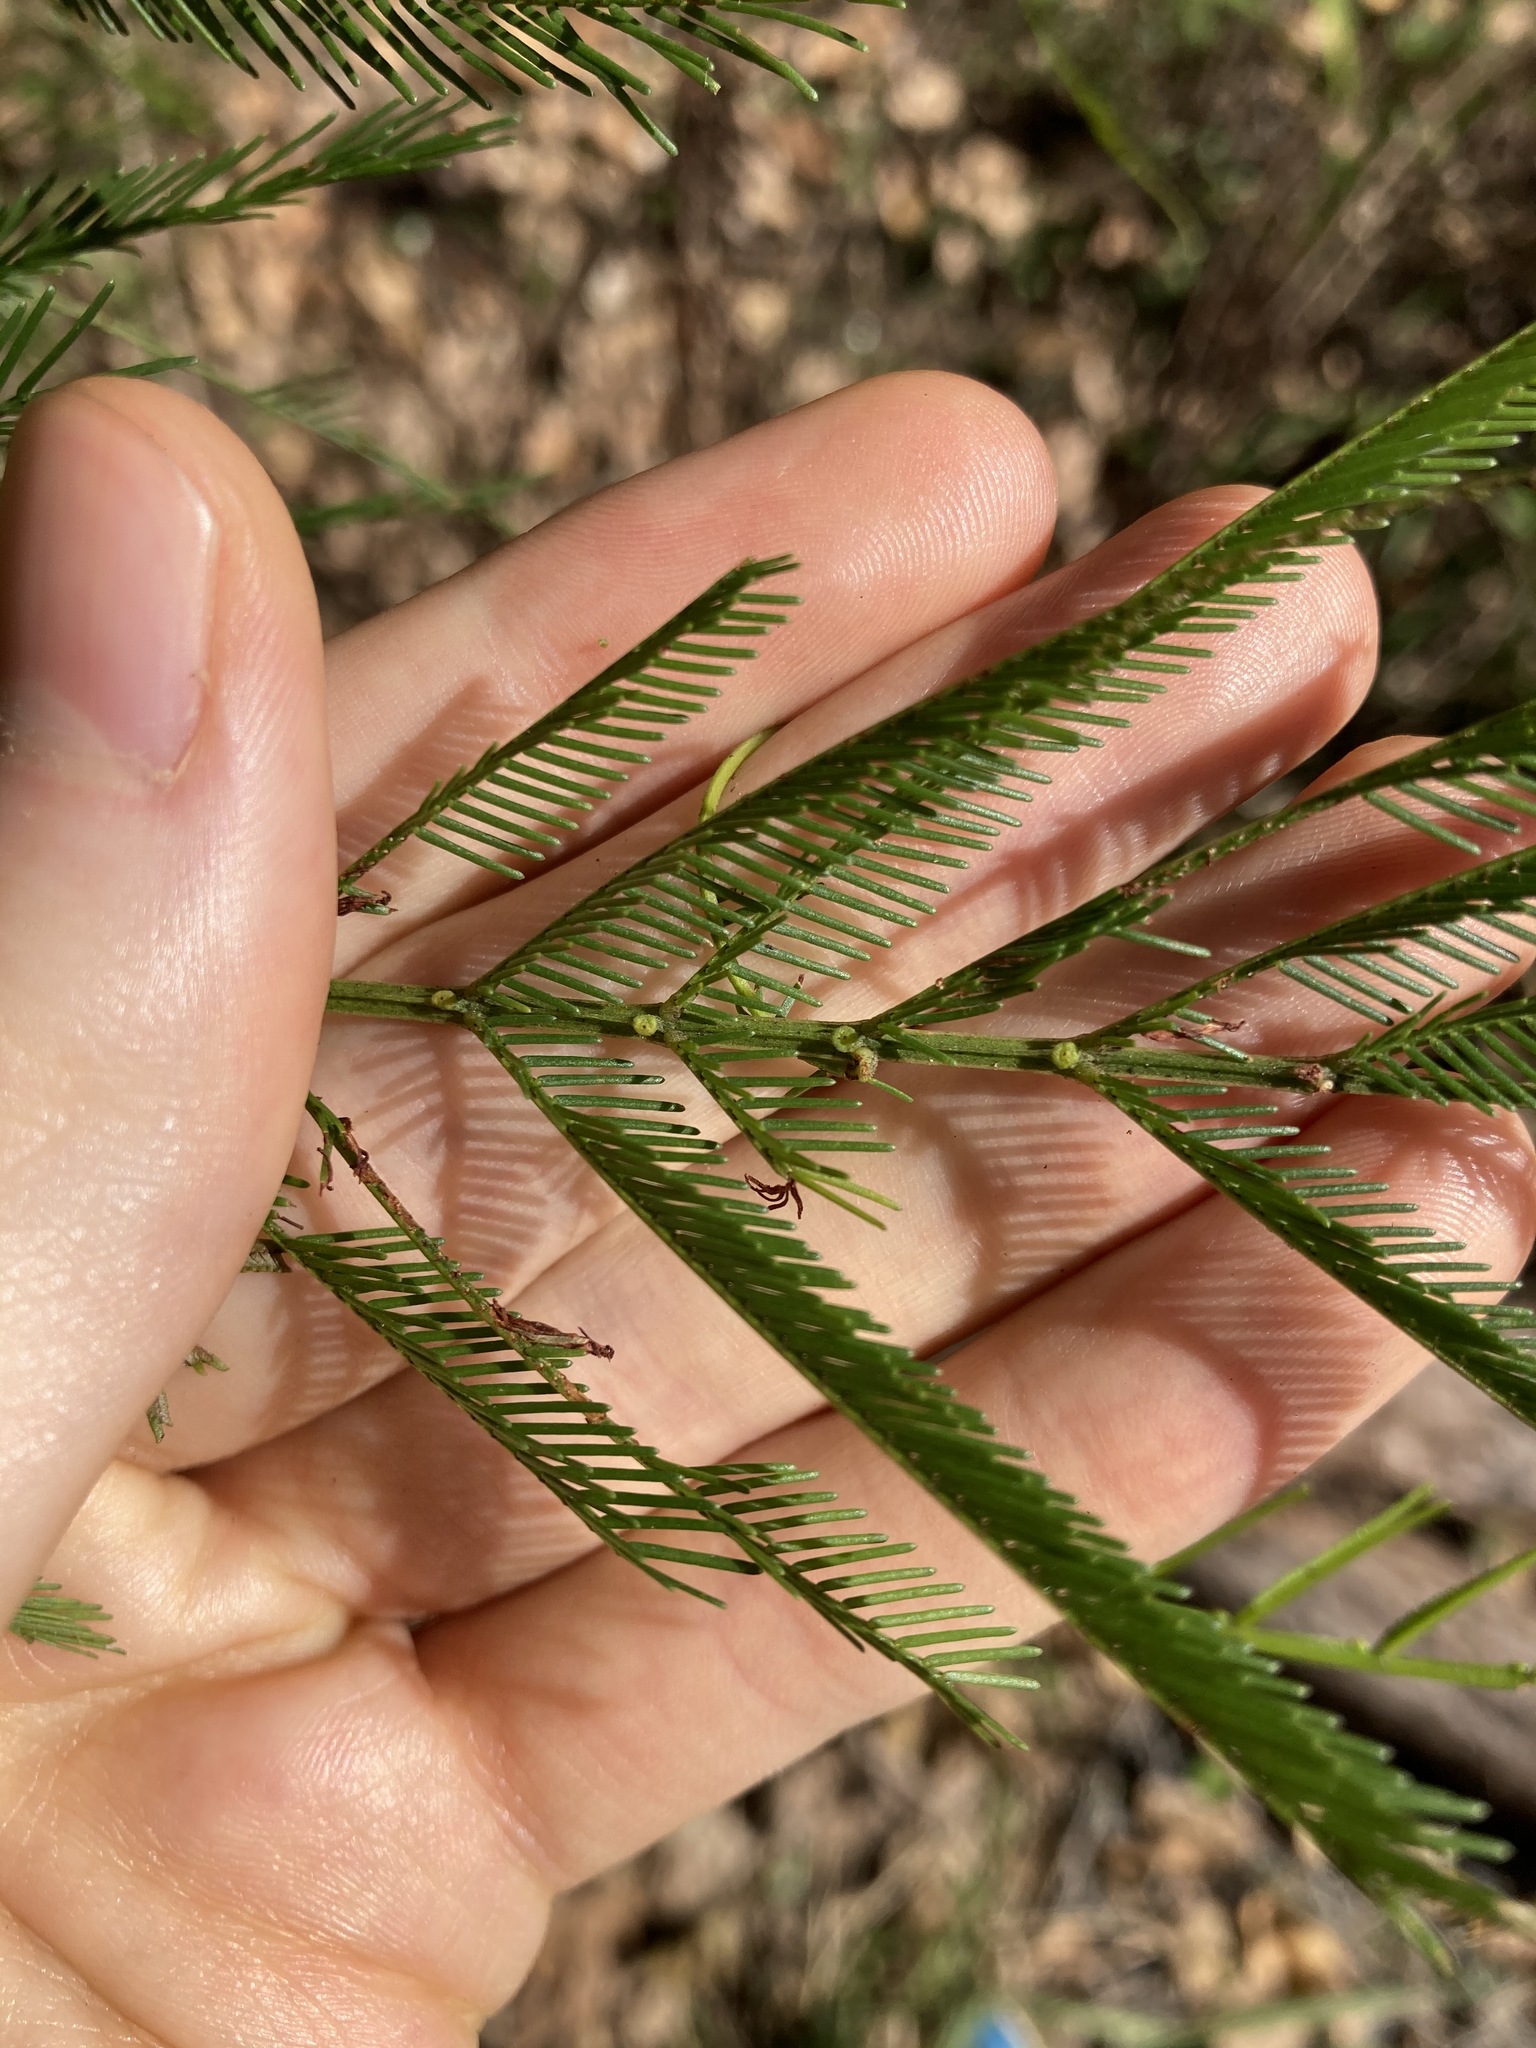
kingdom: Plantae
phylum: Tracheophyta
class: Magnoliopsida
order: Fabales
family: Fabaceae
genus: Acacia
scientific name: Acacia decurrens
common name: Green wattle
